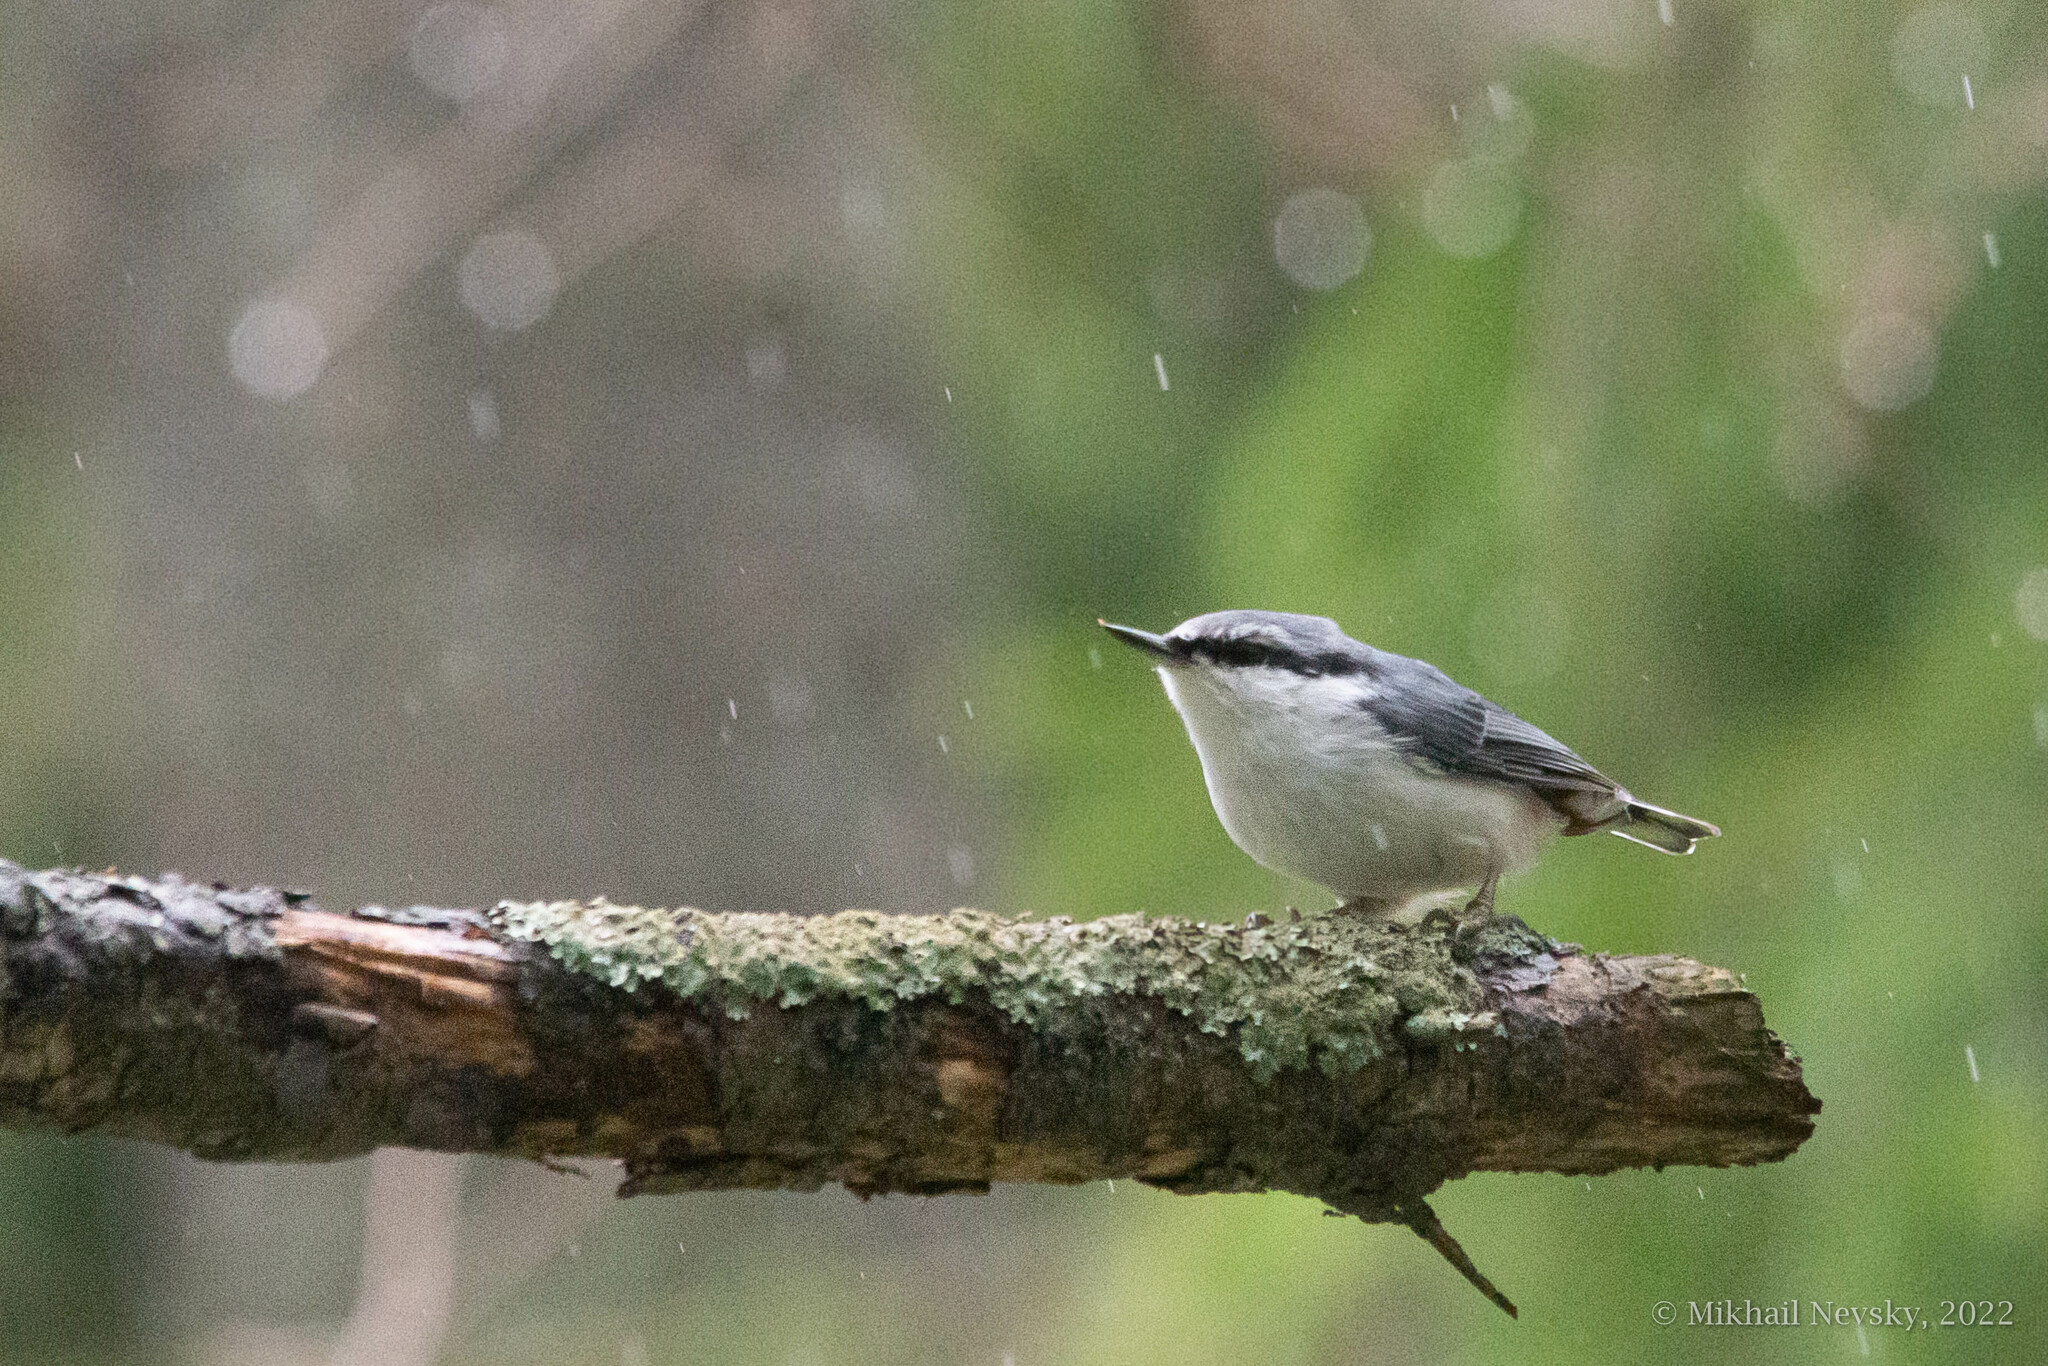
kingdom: Animalia
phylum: Chordata
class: Aves
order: Passeriformes
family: Sittidae
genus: Sitta
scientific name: Sitta europaea
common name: Eurasian nuthatch
